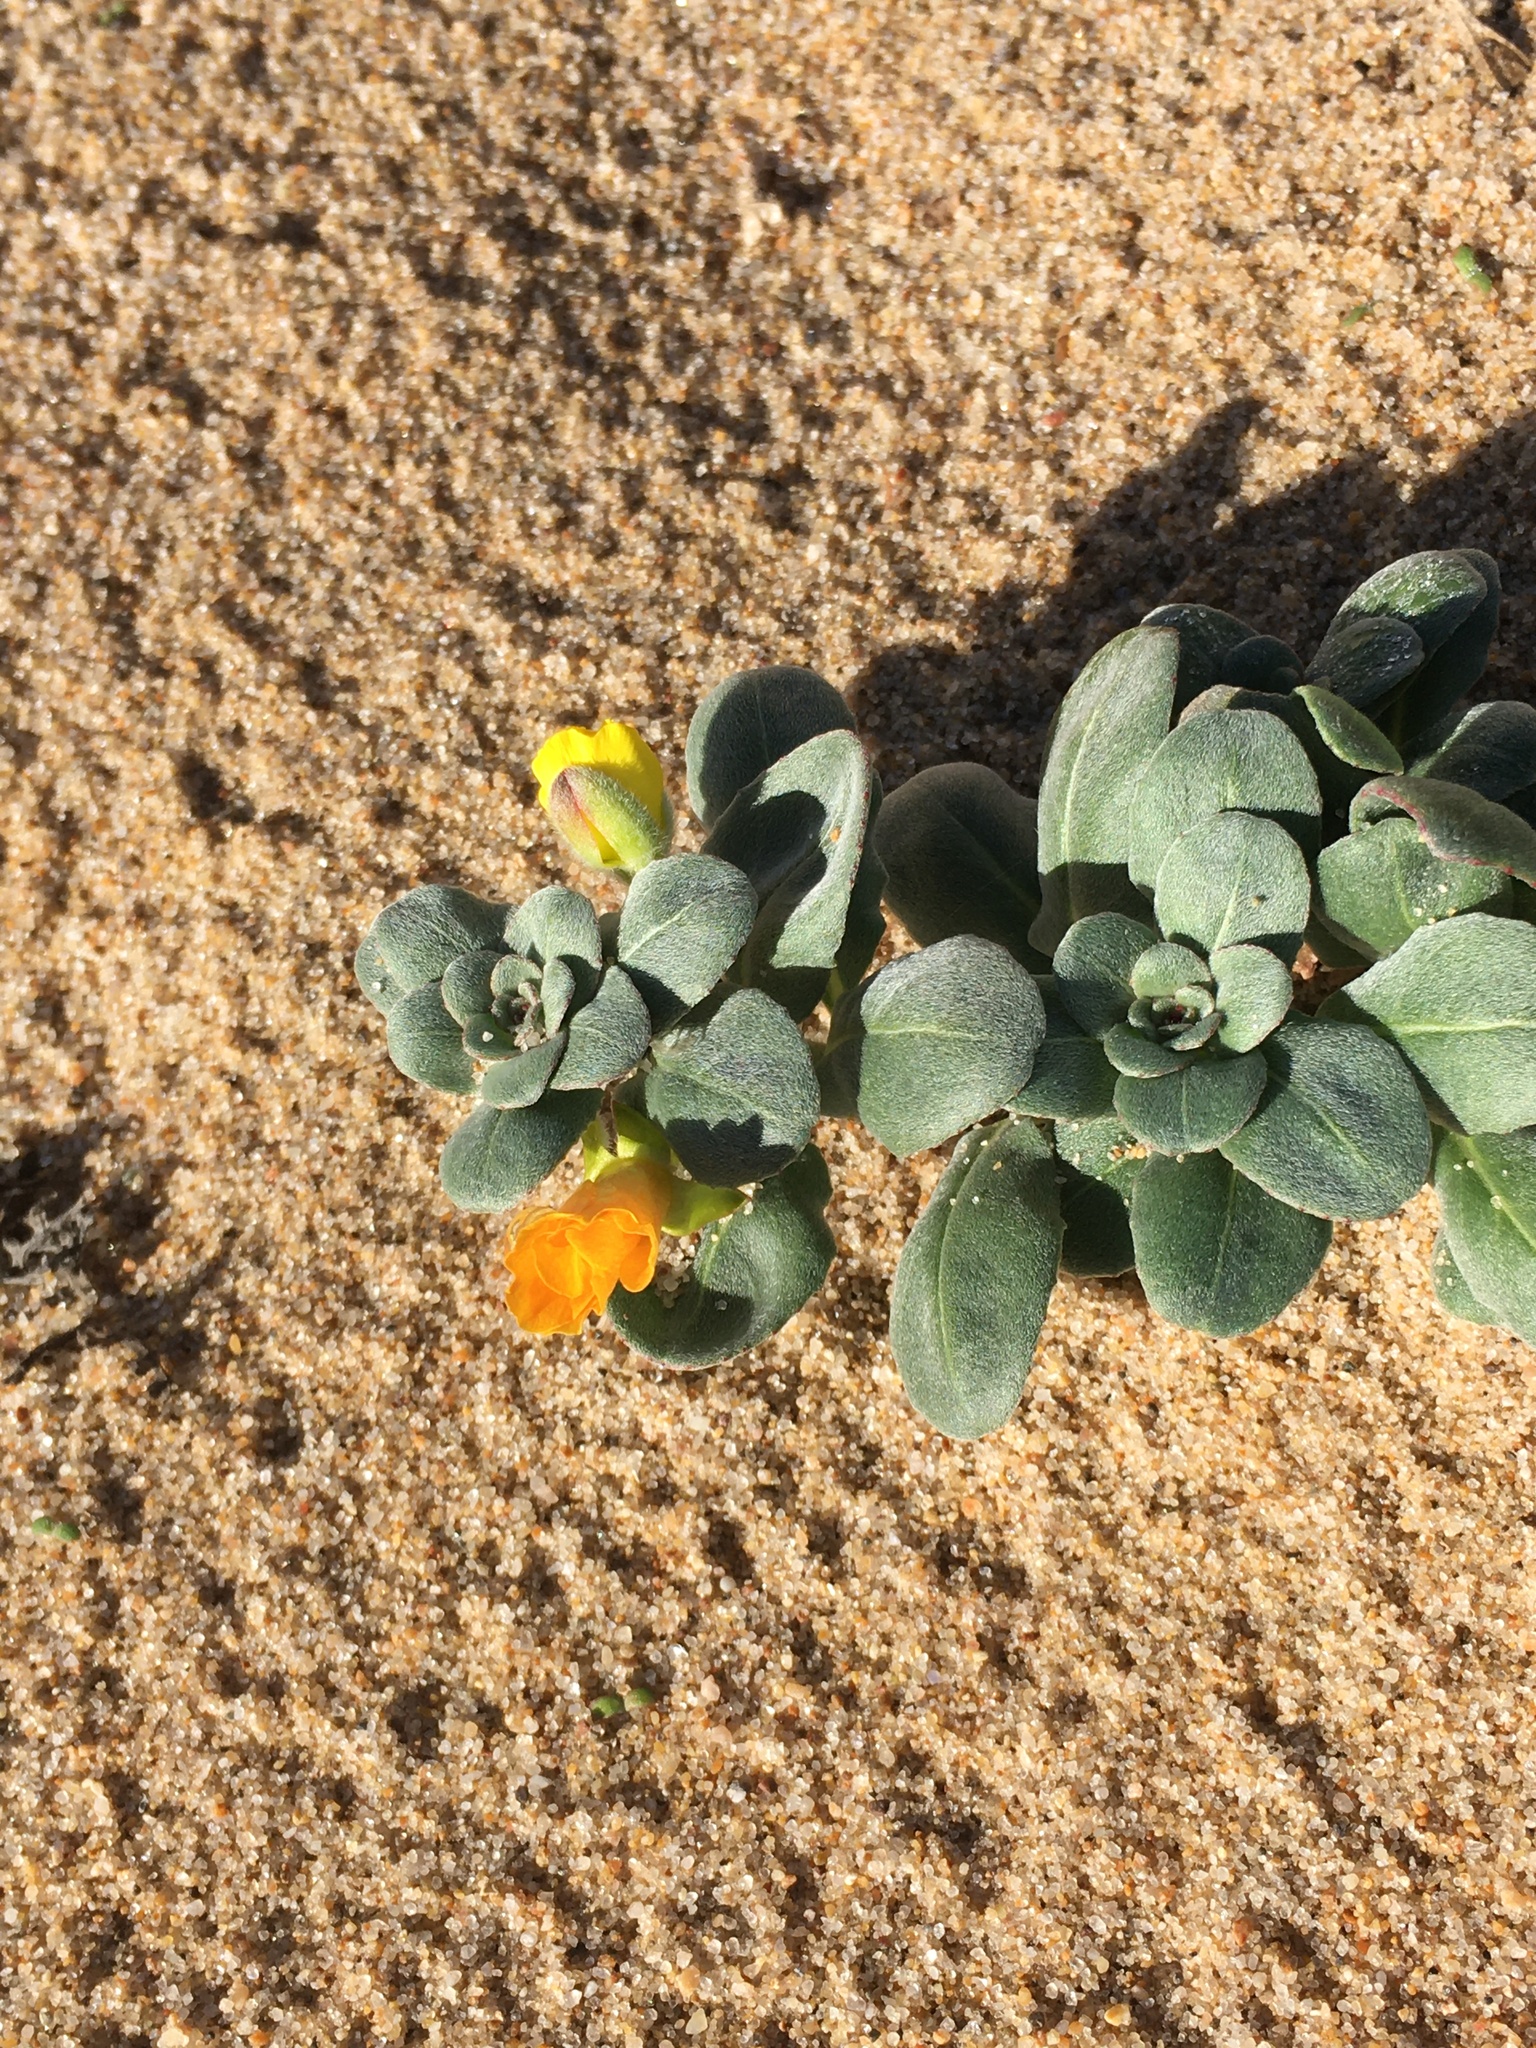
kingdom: Plantae
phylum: Tracheophyta
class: Magnoliopsida
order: Myrtales
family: Onagraceae
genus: Camissoniopsis
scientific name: Camissoniopsis cheiranthifolia
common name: Beach suncup
